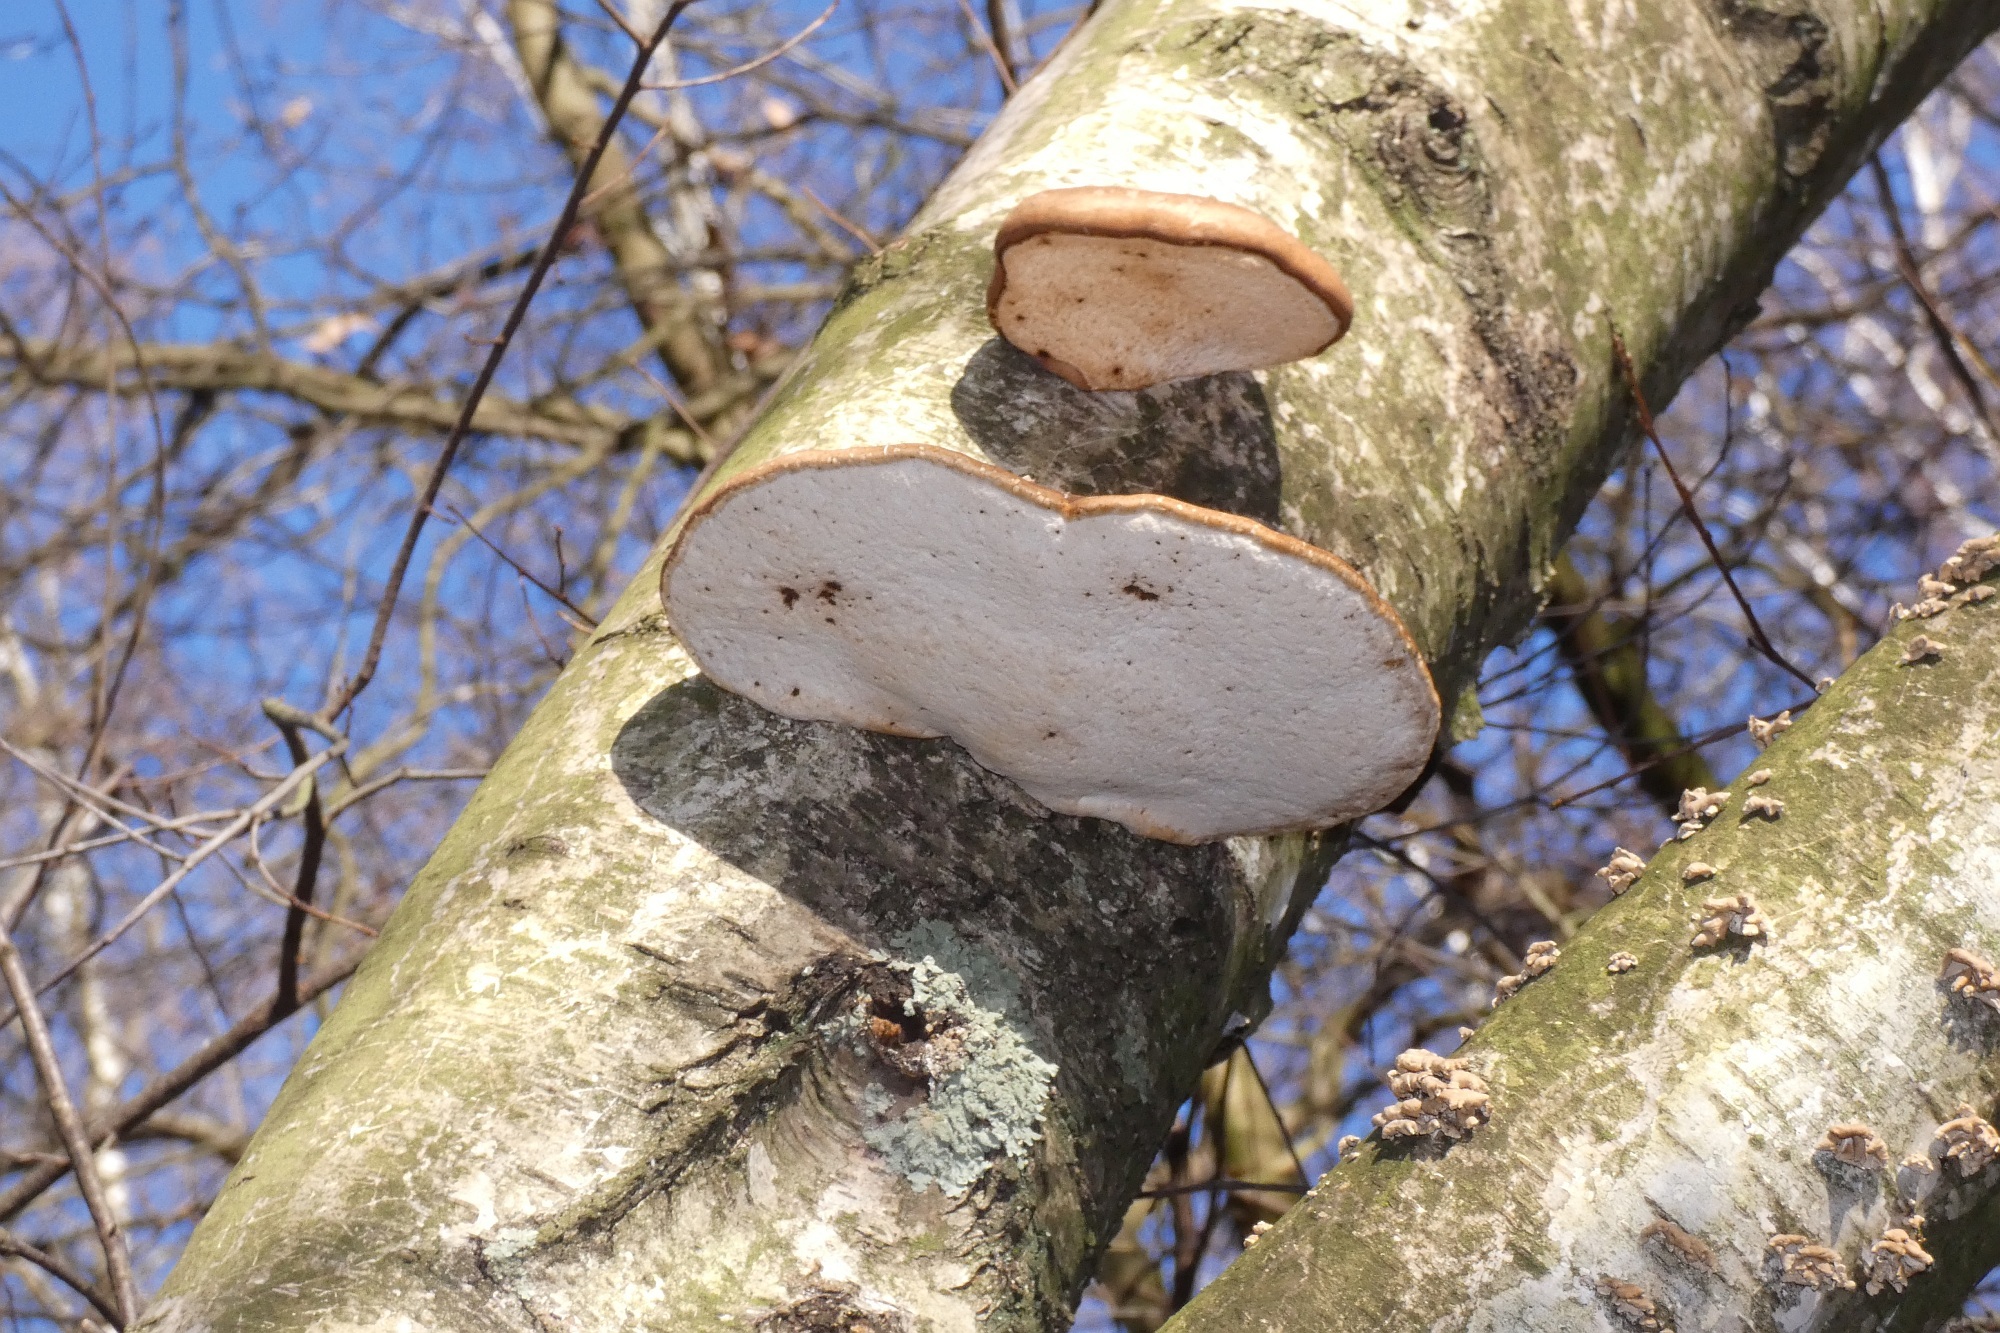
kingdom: Fungi
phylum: Basidiomycota
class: Agaricomycetes
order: Polyporales
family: Fomitopsidaceae
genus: Fomitopsis
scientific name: Fomitopsis betulina
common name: Birch polypore
